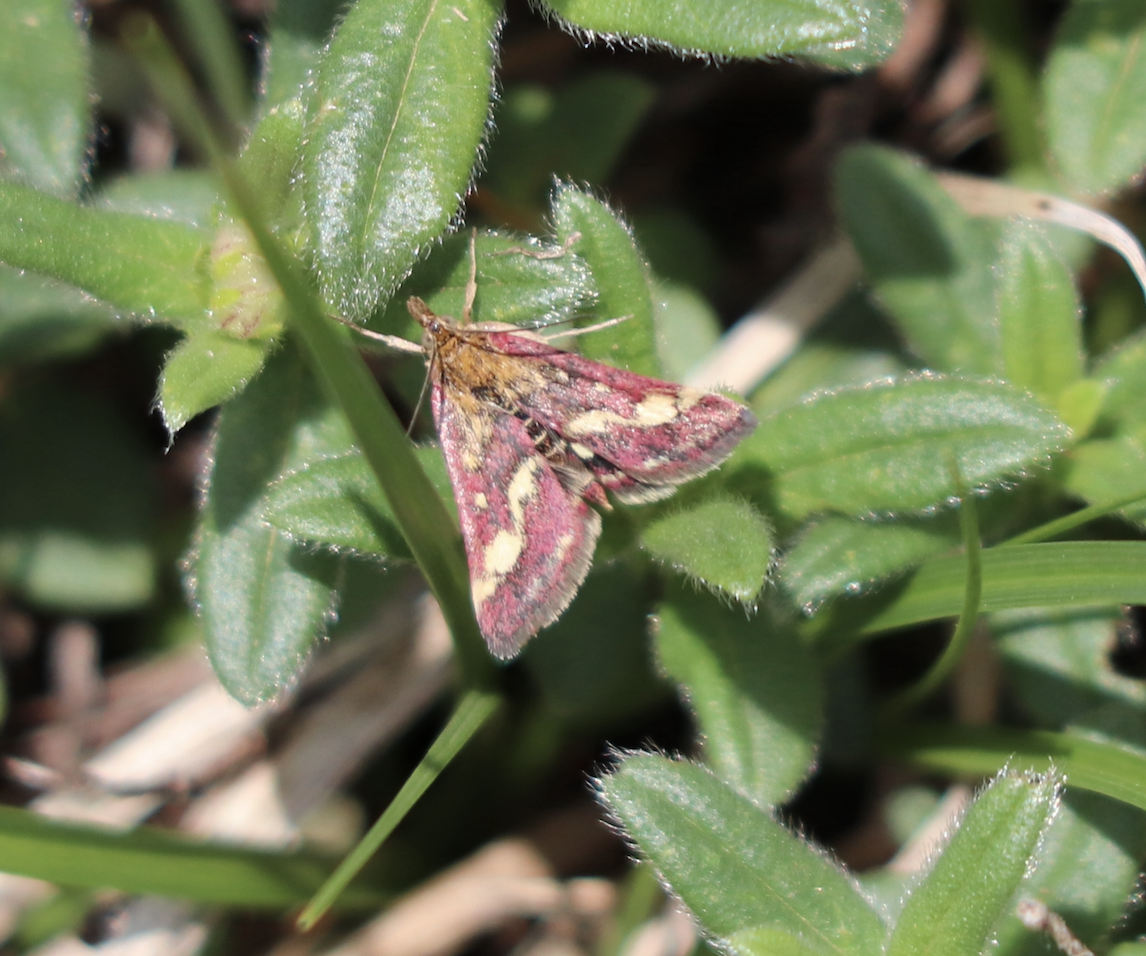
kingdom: Animalia
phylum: Arthropoda
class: Insecta
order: Lepidoptera
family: Crambidae
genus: Pyrausta
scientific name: Pyrausta ostrinalis
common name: Scarce purple & gold
